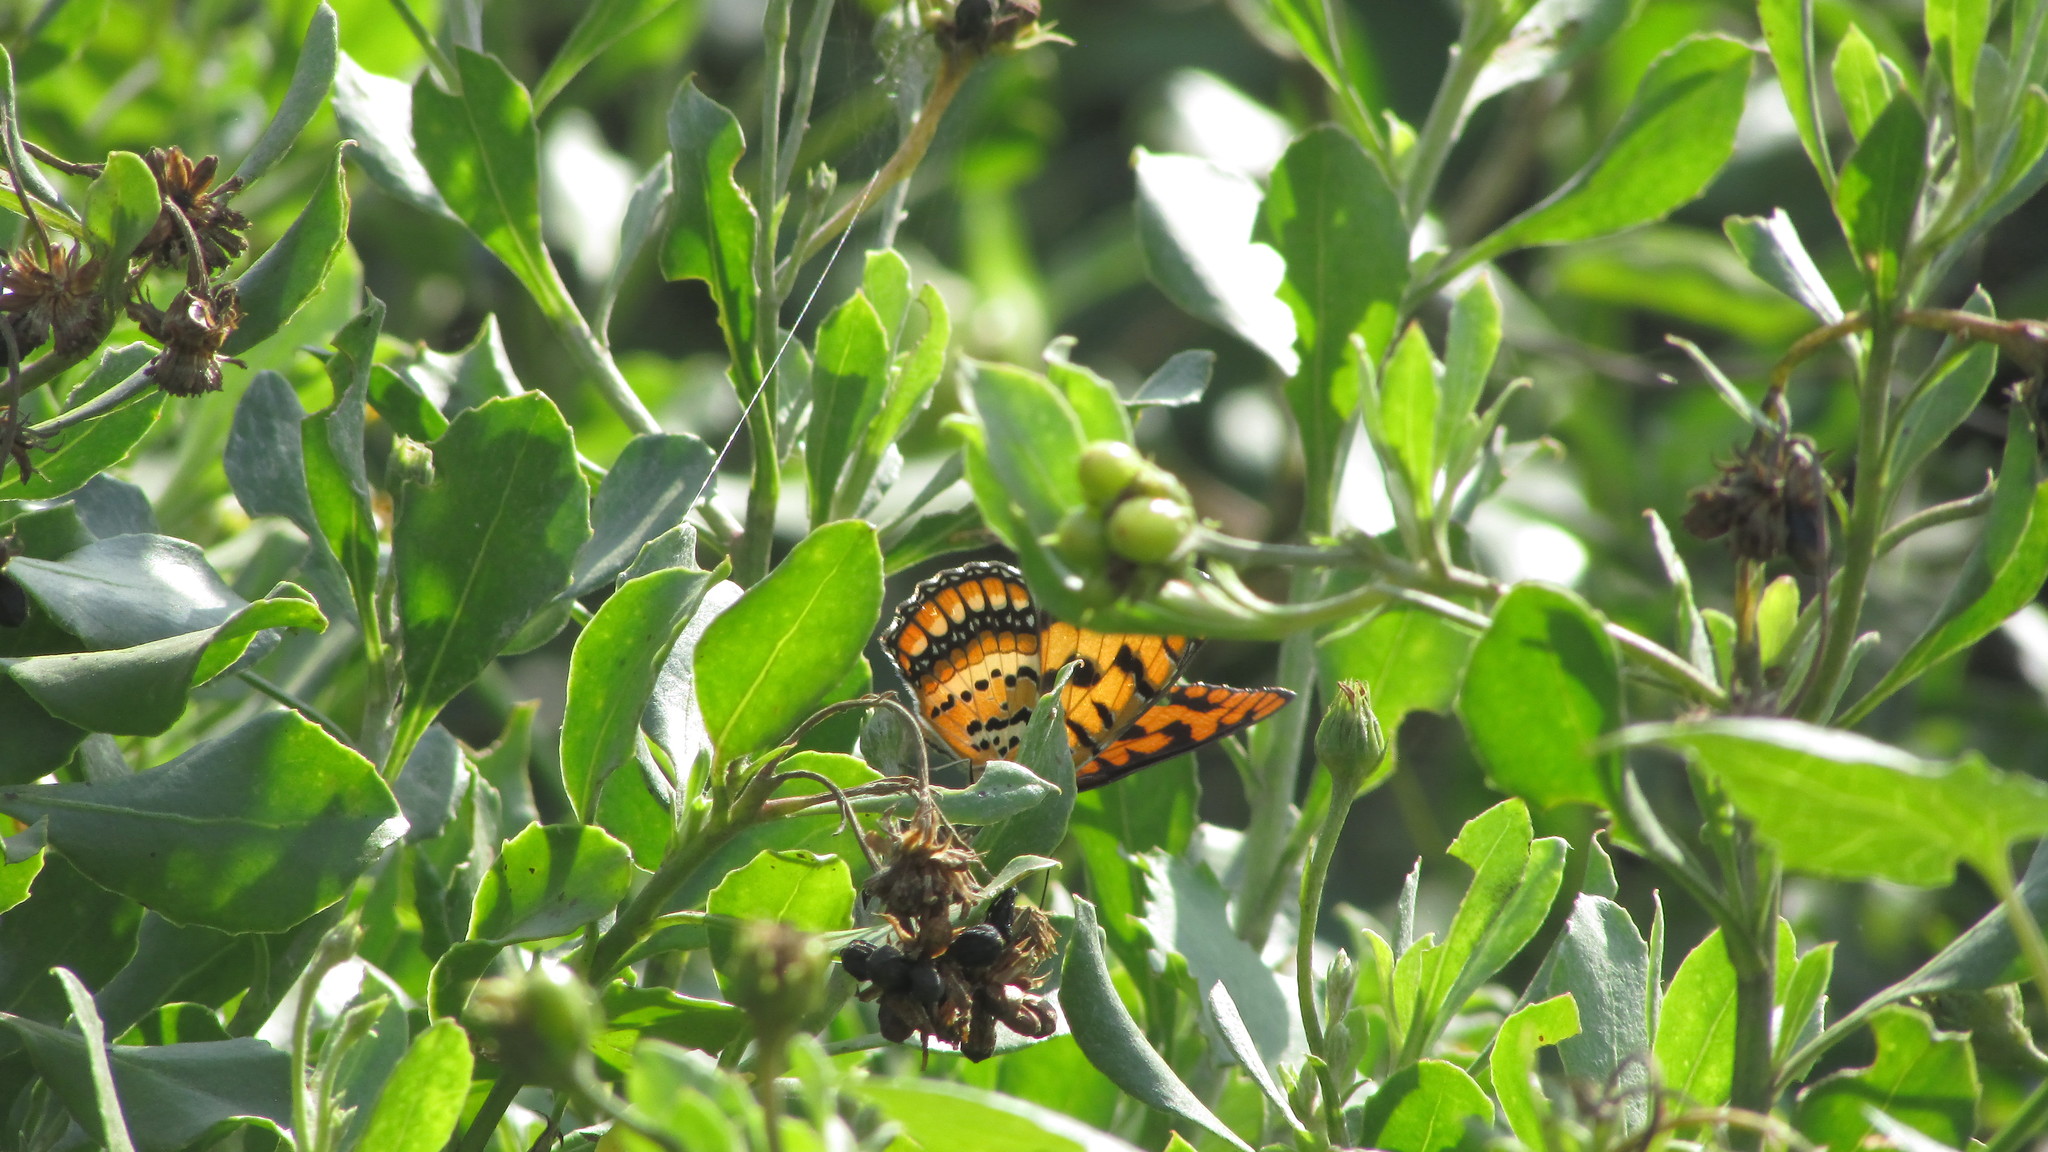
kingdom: Animalia
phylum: Arthropoda
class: Insecta
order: Lepidoptera
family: Nymphalidae
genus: Byblia
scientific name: Byblia ilithyia
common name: Spotted joker
